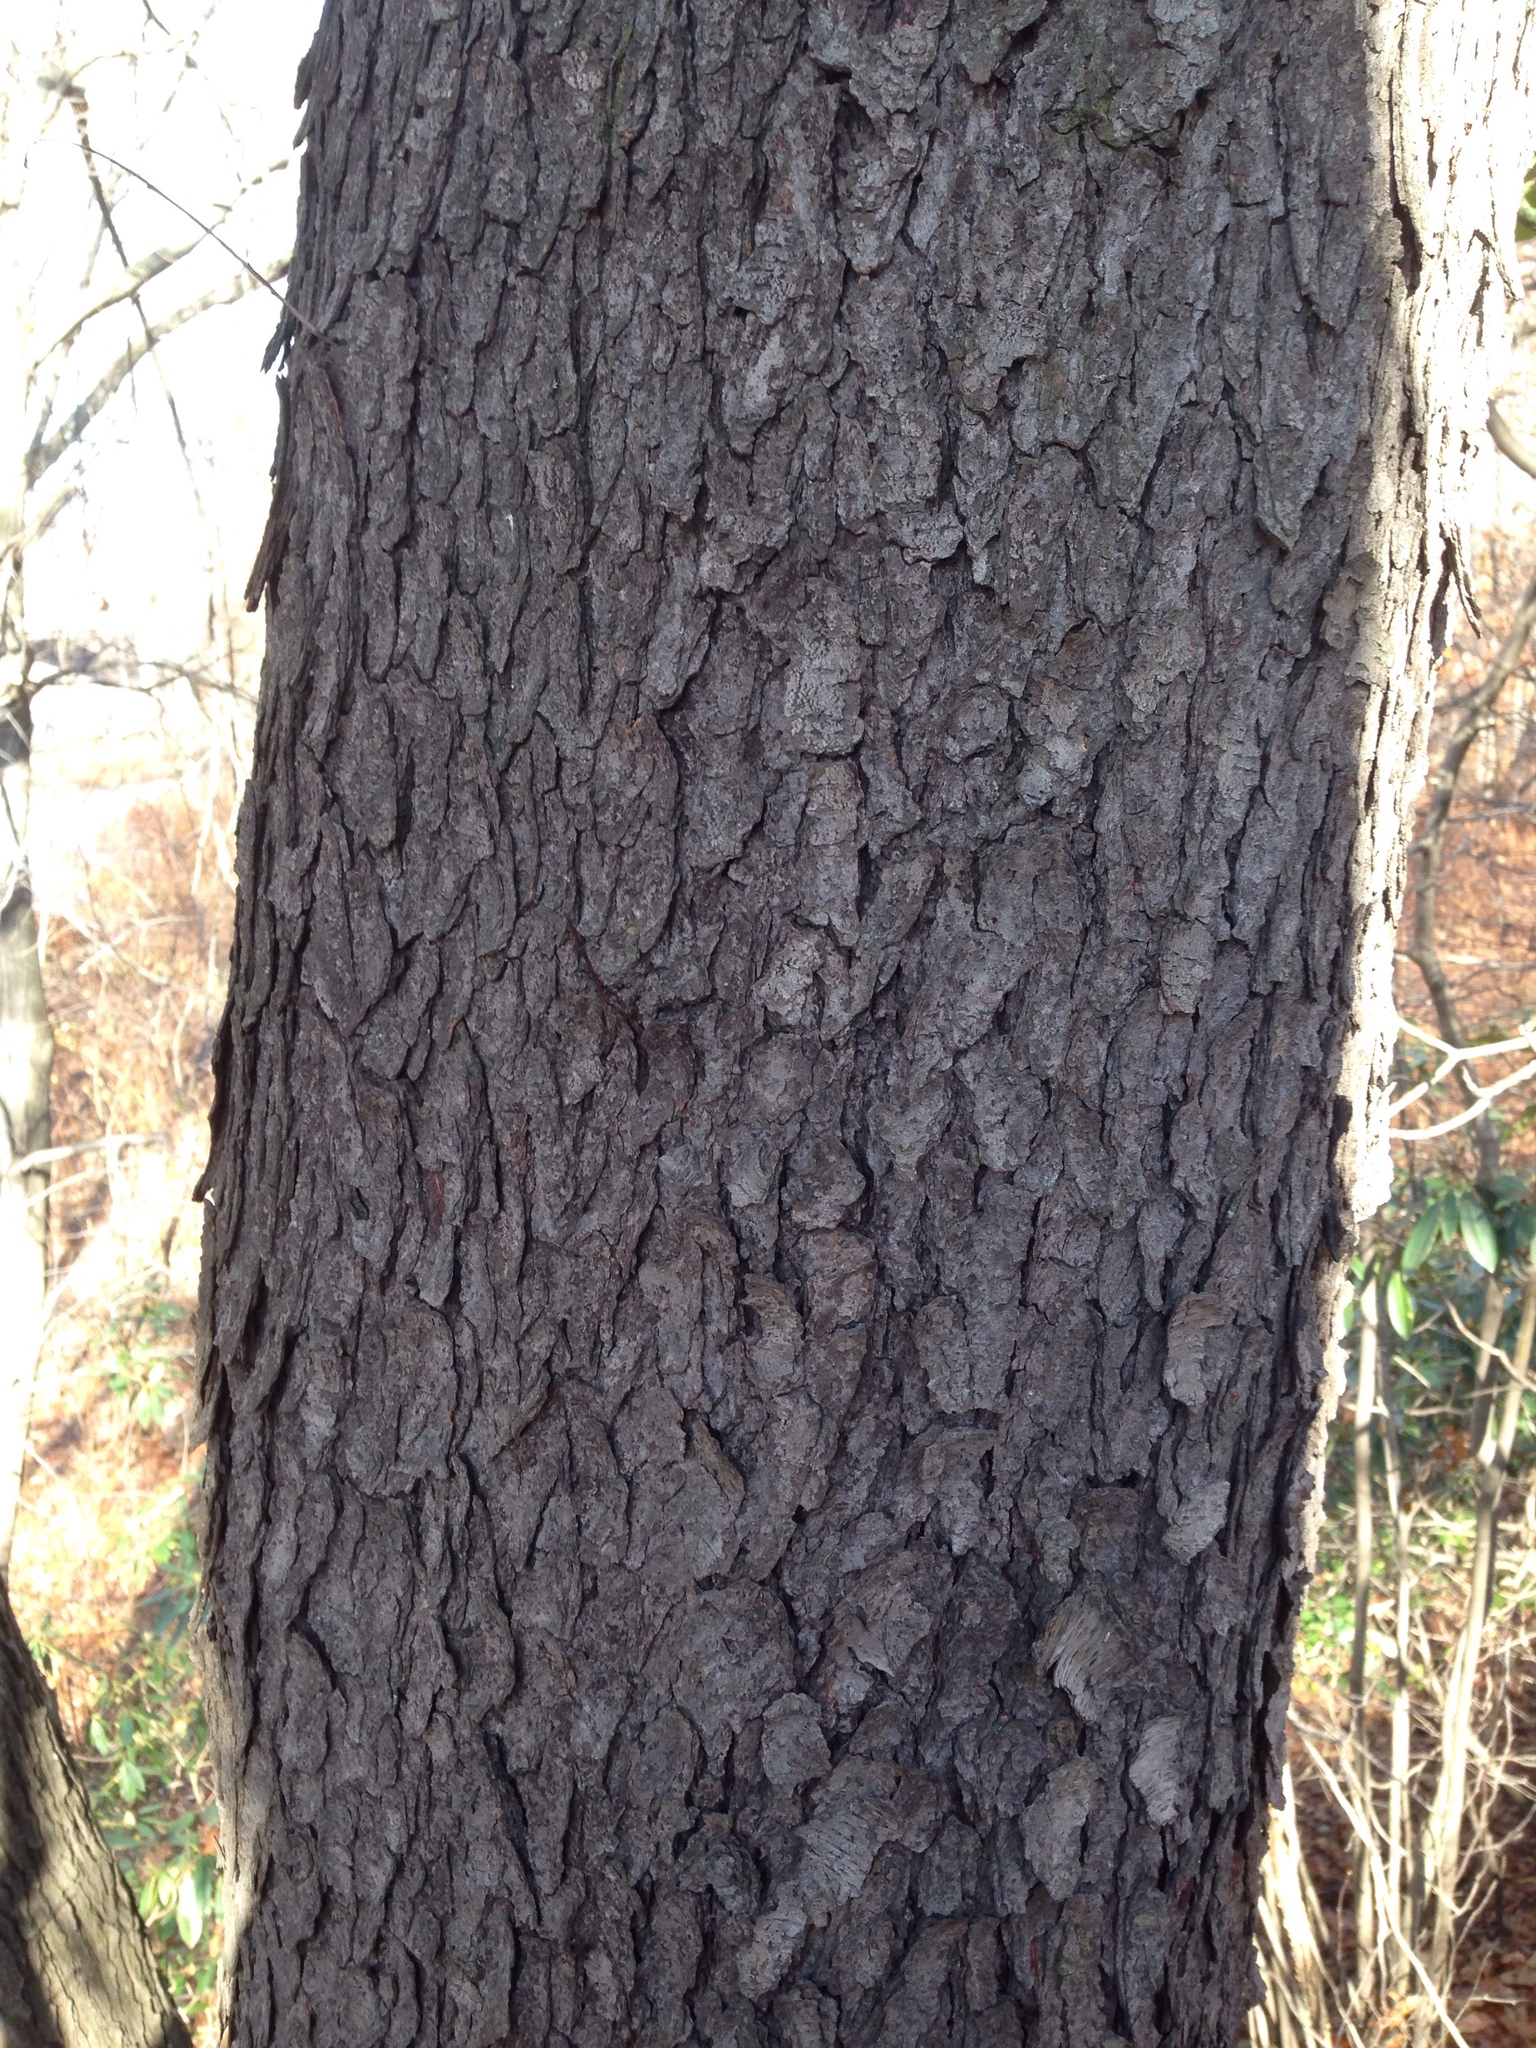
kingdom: Plantae
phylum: Tracheophyta
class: Magnoliopsida
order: Rosales
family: Rosaceae
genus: Prunus
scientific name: Prunus serotina
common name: Black cherry
